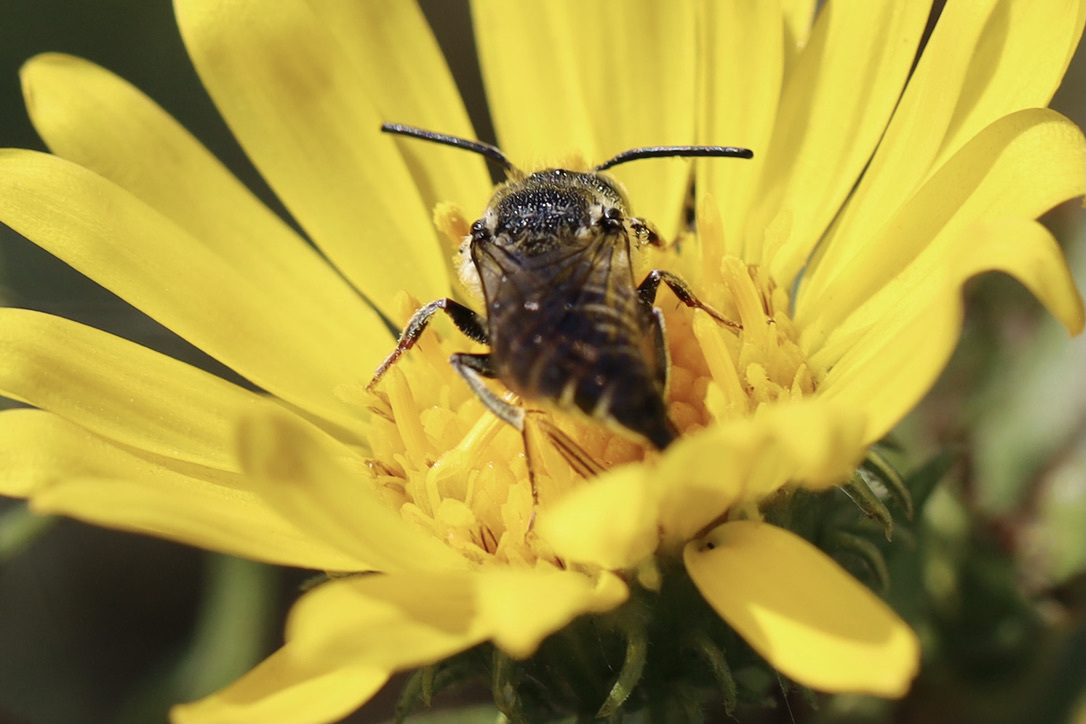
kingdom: Animalia
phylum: Arthropoda
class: Insecta
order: Hymenoptera
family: Megachilidae
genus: Coelioxys
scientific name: Coelioxys rufitarsis
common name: Red-footed sharptail
